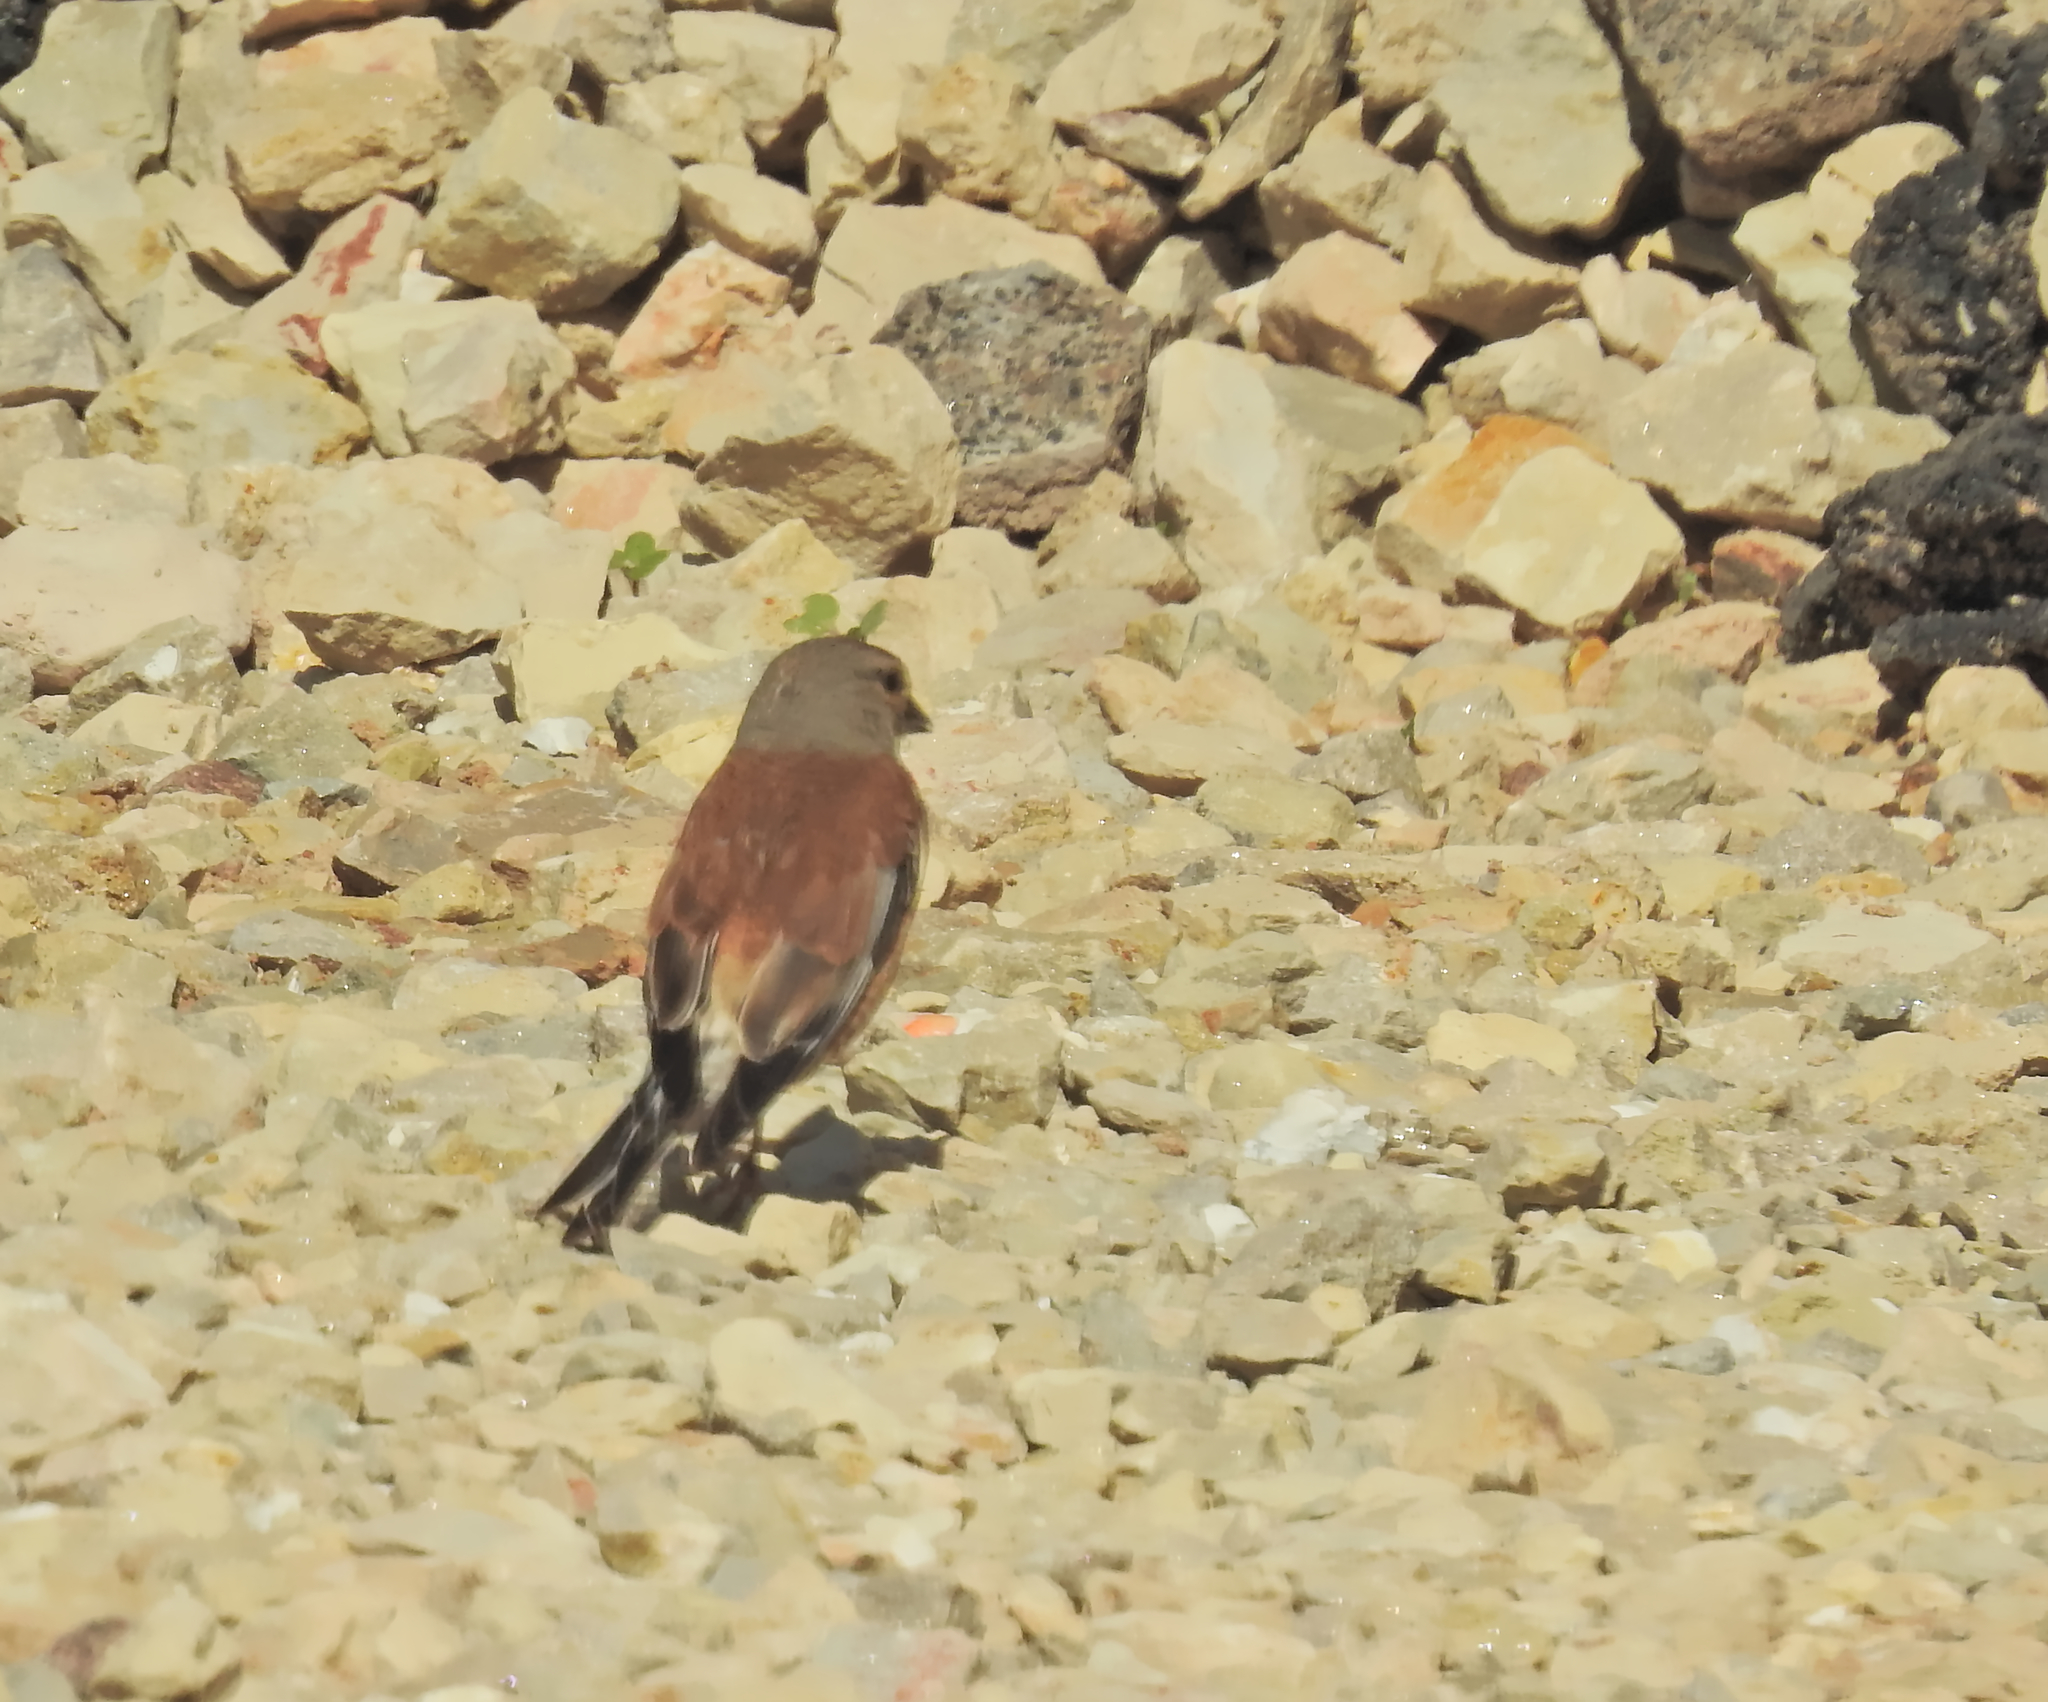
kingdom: Animalia
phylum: Chordata
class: Aves
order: Passeriformes
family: Fringillidae
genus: Linaria
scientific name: Linaria cannabina
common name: Common linnet
